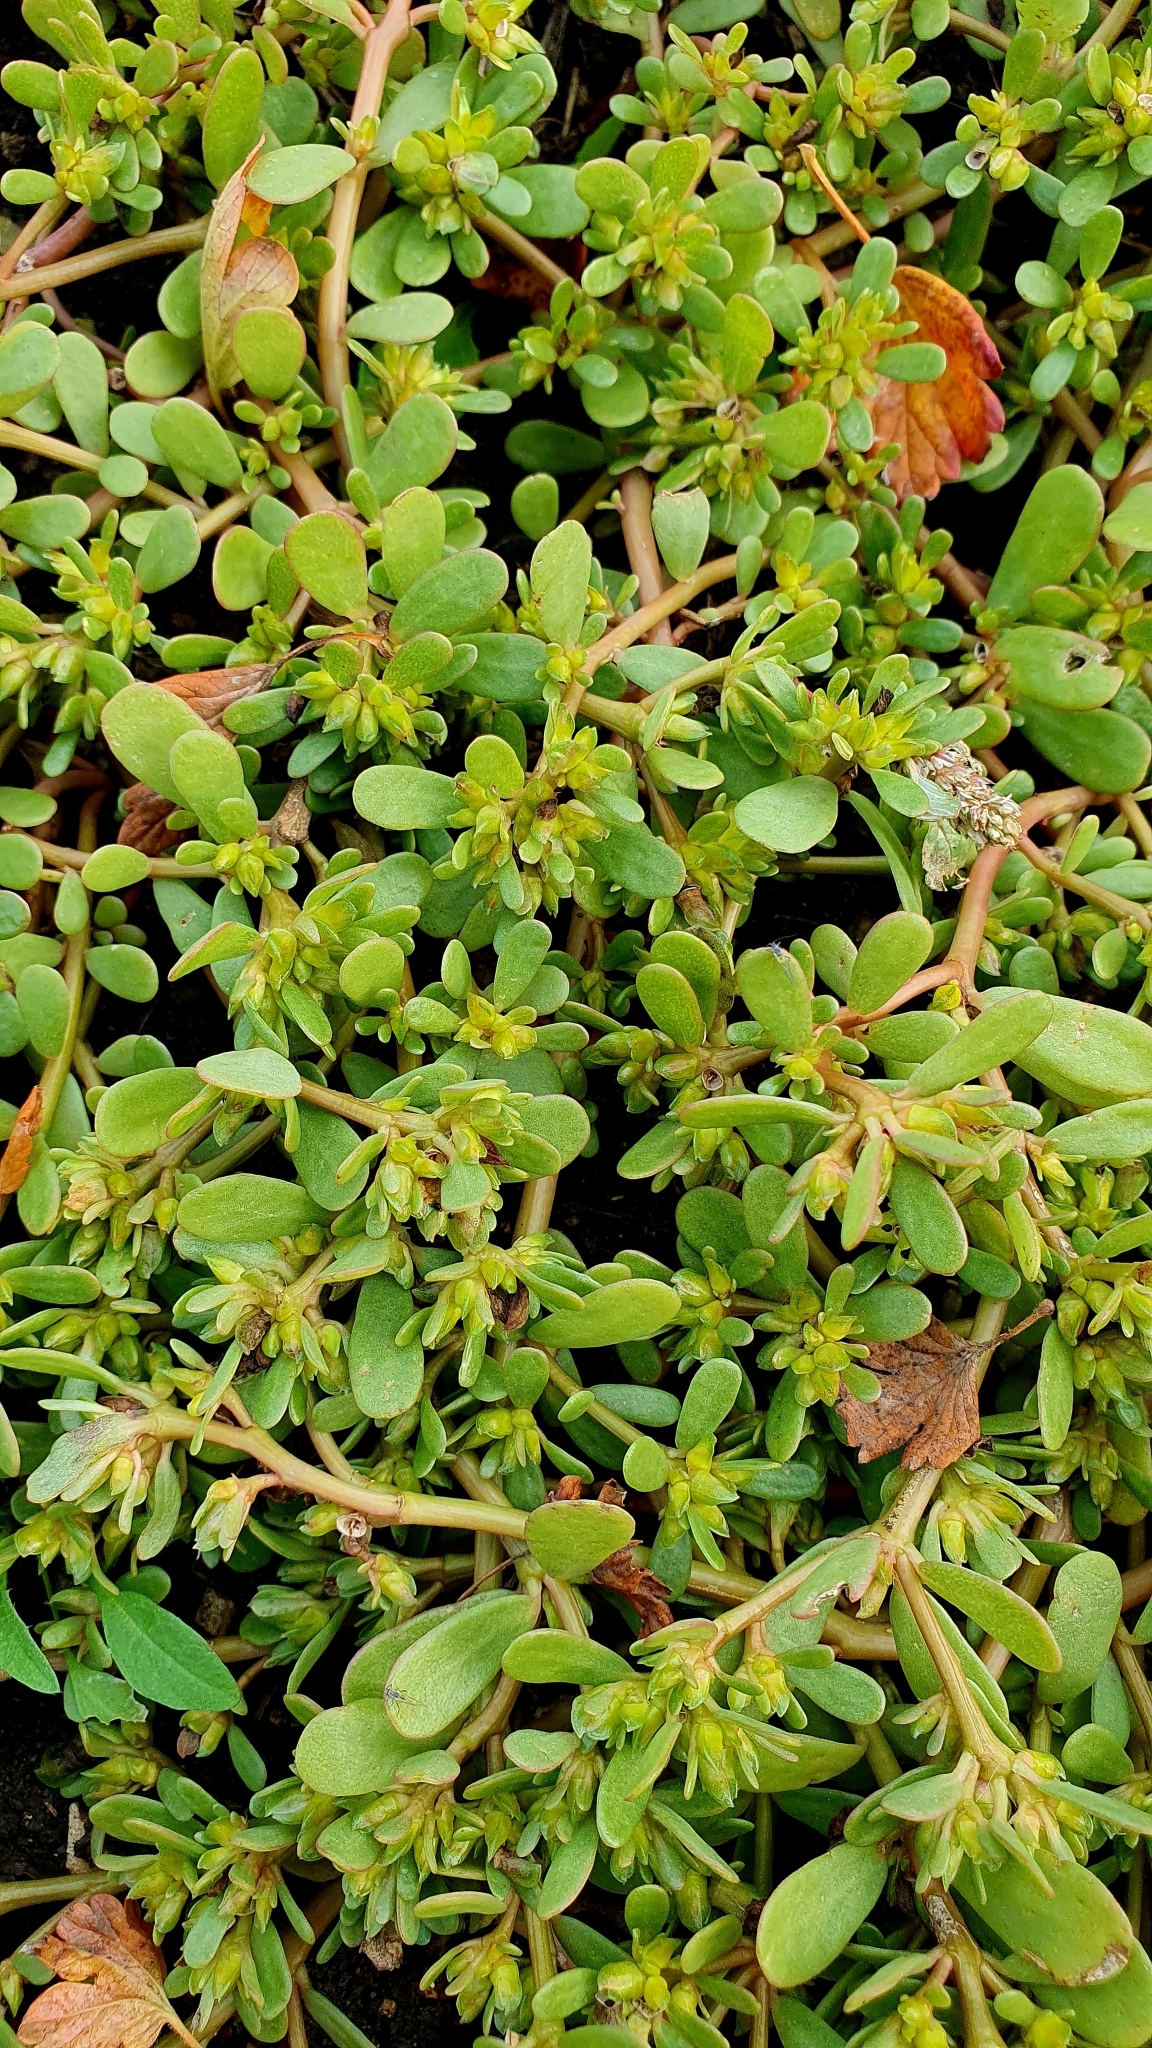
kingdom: Plantae
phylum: Tracheophyta
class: Magnoliopsida
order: Caryophyllales
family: Portulacaceae
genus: Portulaca
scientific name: Portulaca oleracea
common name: Common purslane
